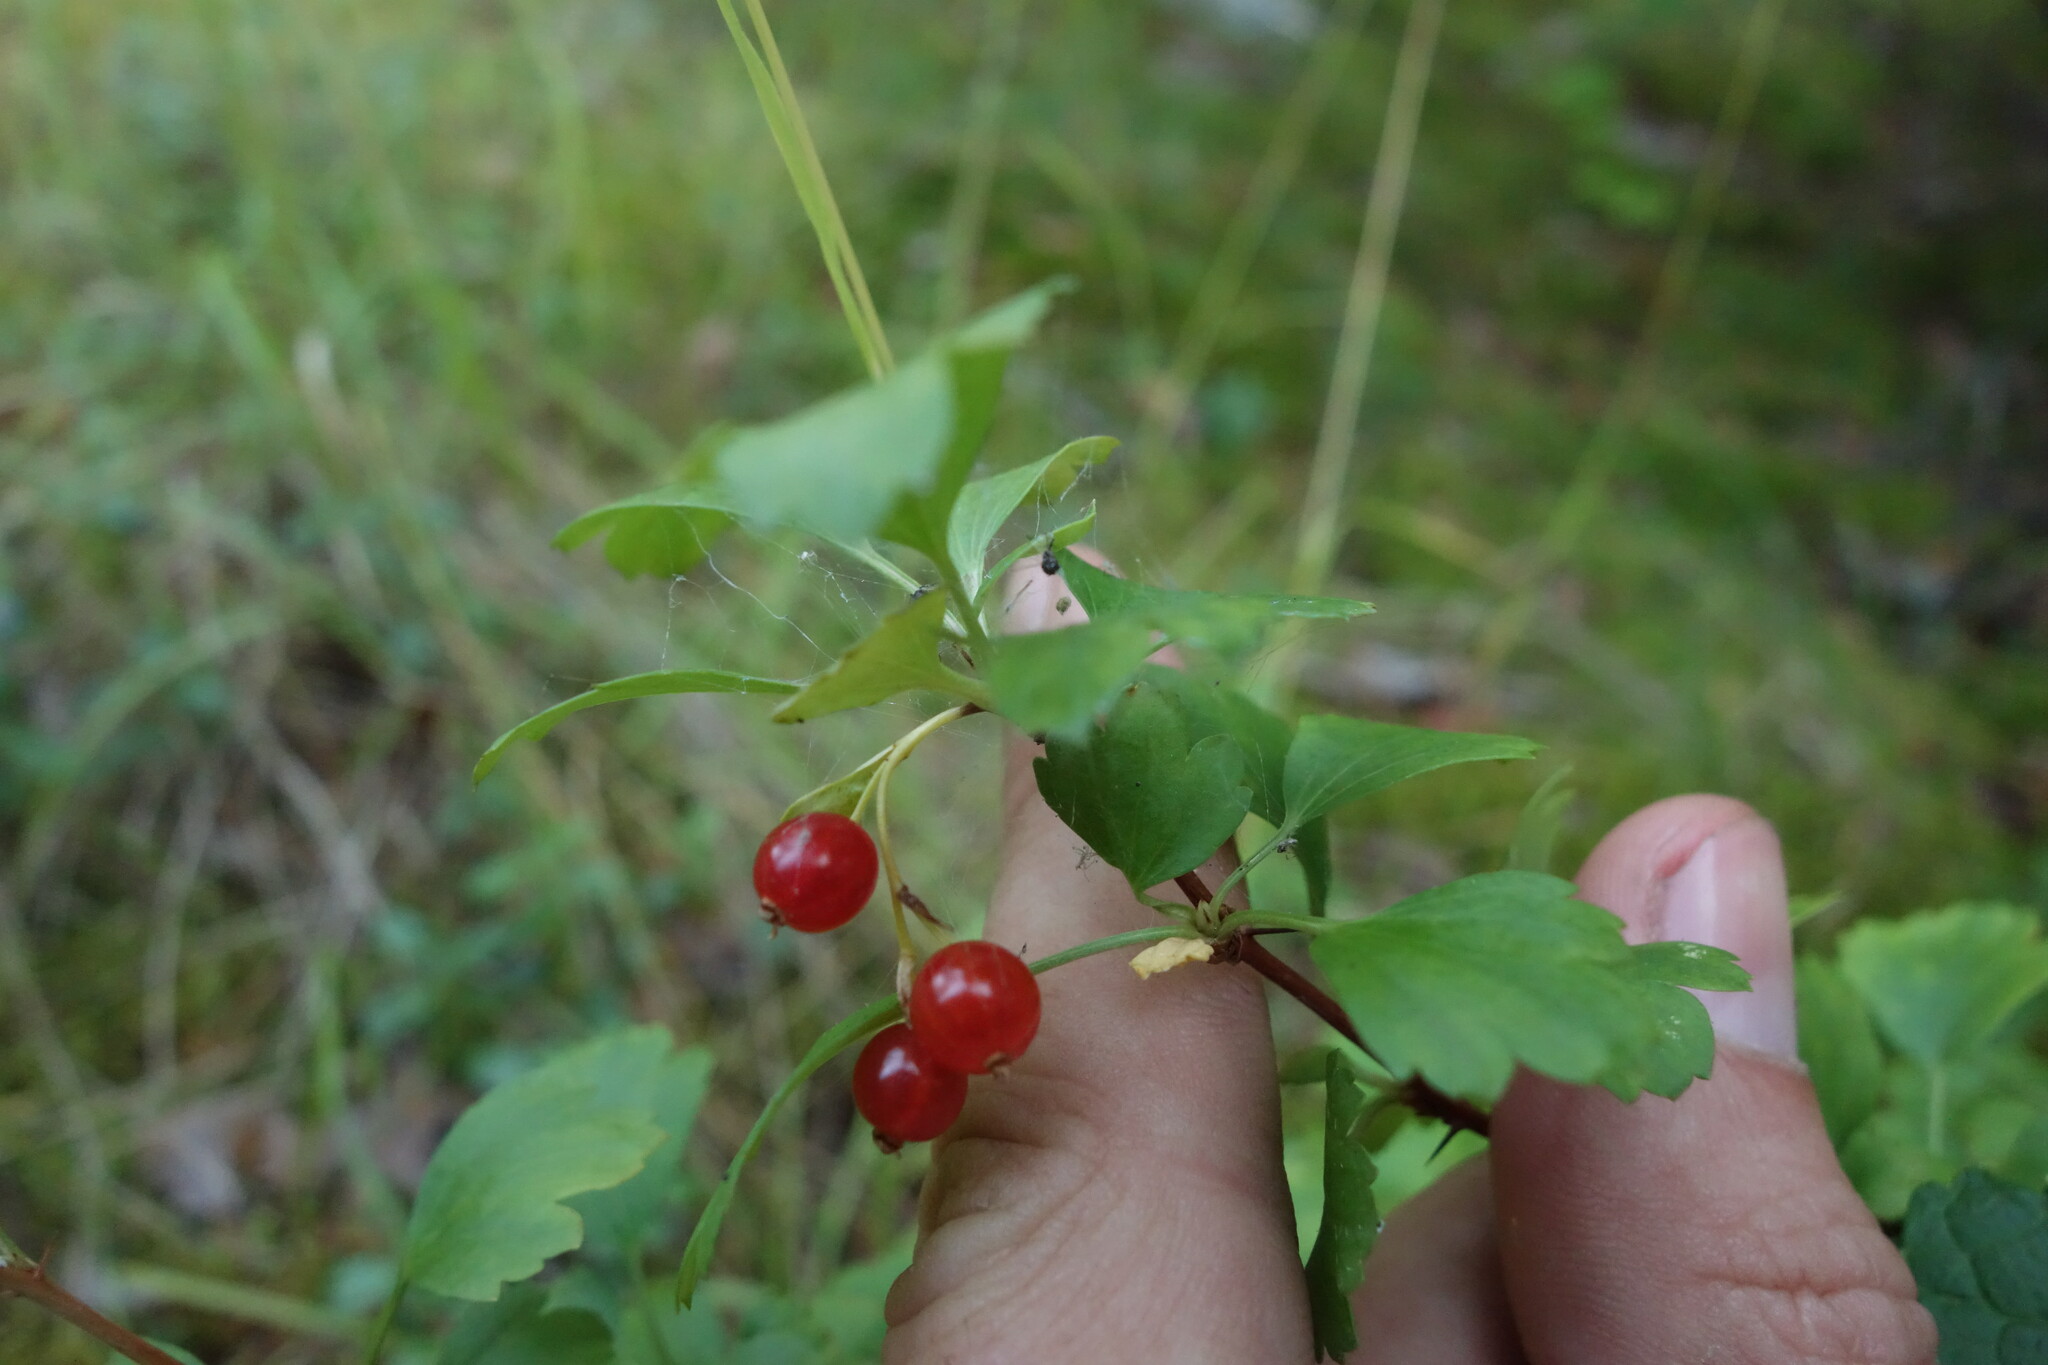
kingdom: Plantae
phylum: Tracheophyta
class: Magnoliopsida
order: Saxifragales
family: Grossulariaceae
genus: Ribes
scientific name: Ribes diacanthum
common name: Siberian currant
